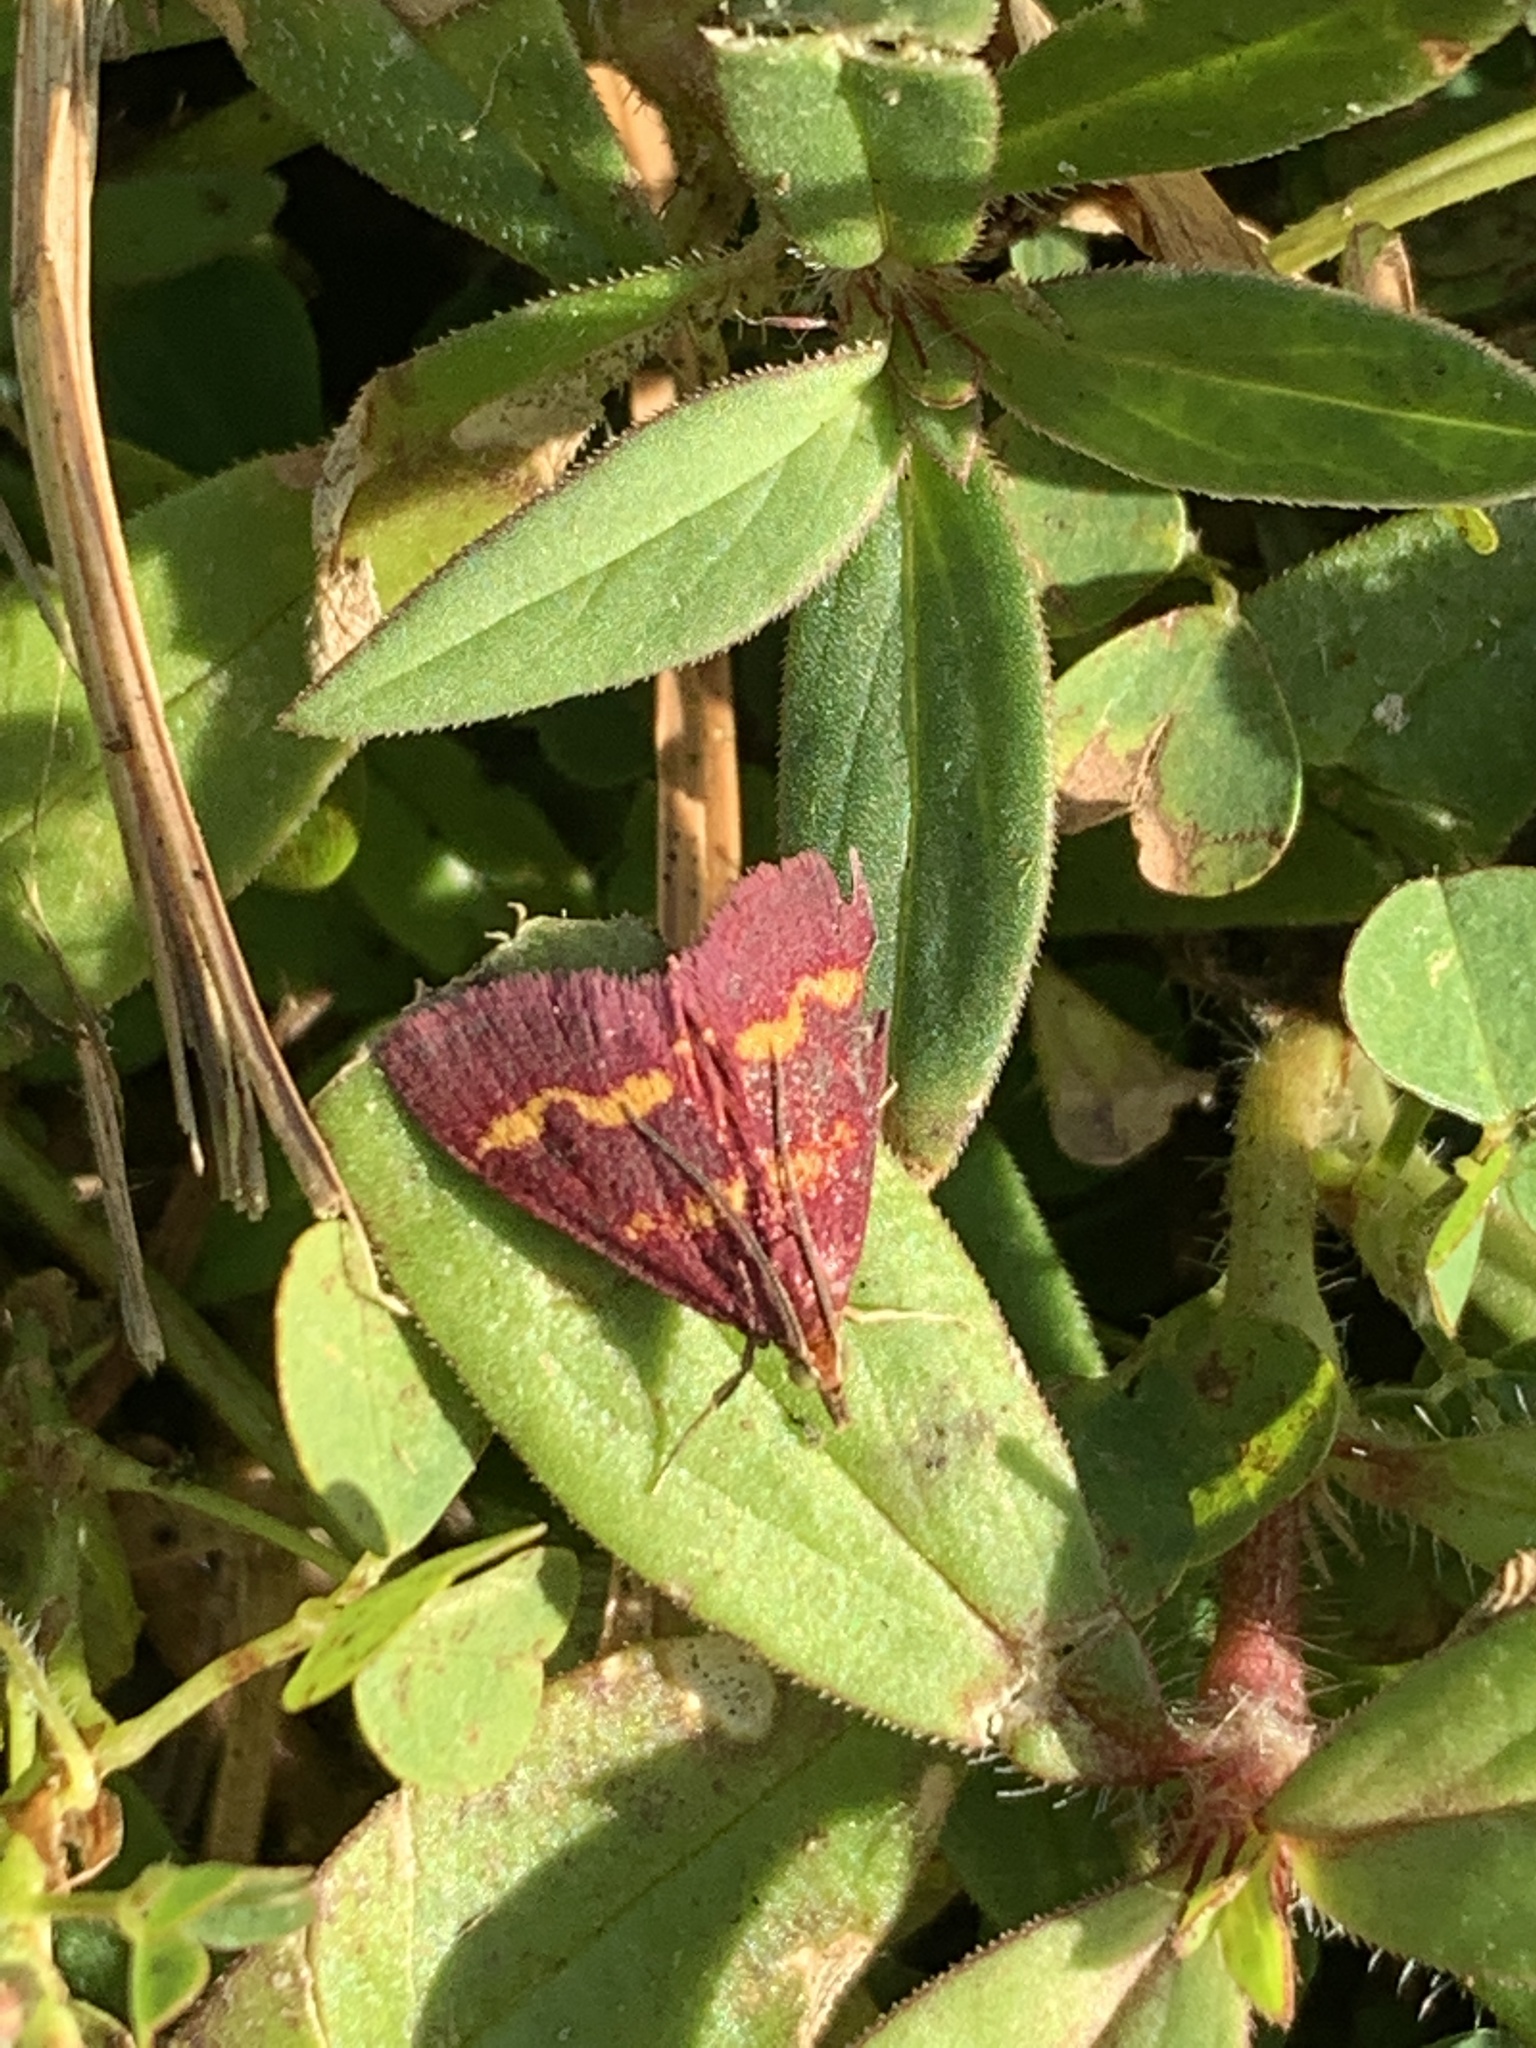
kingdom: Animalia
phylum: Arthropoda
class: Insecta
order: Lepidoptera
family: Crambidae
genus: Pyrausta
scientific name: Pyrausta tyralis
